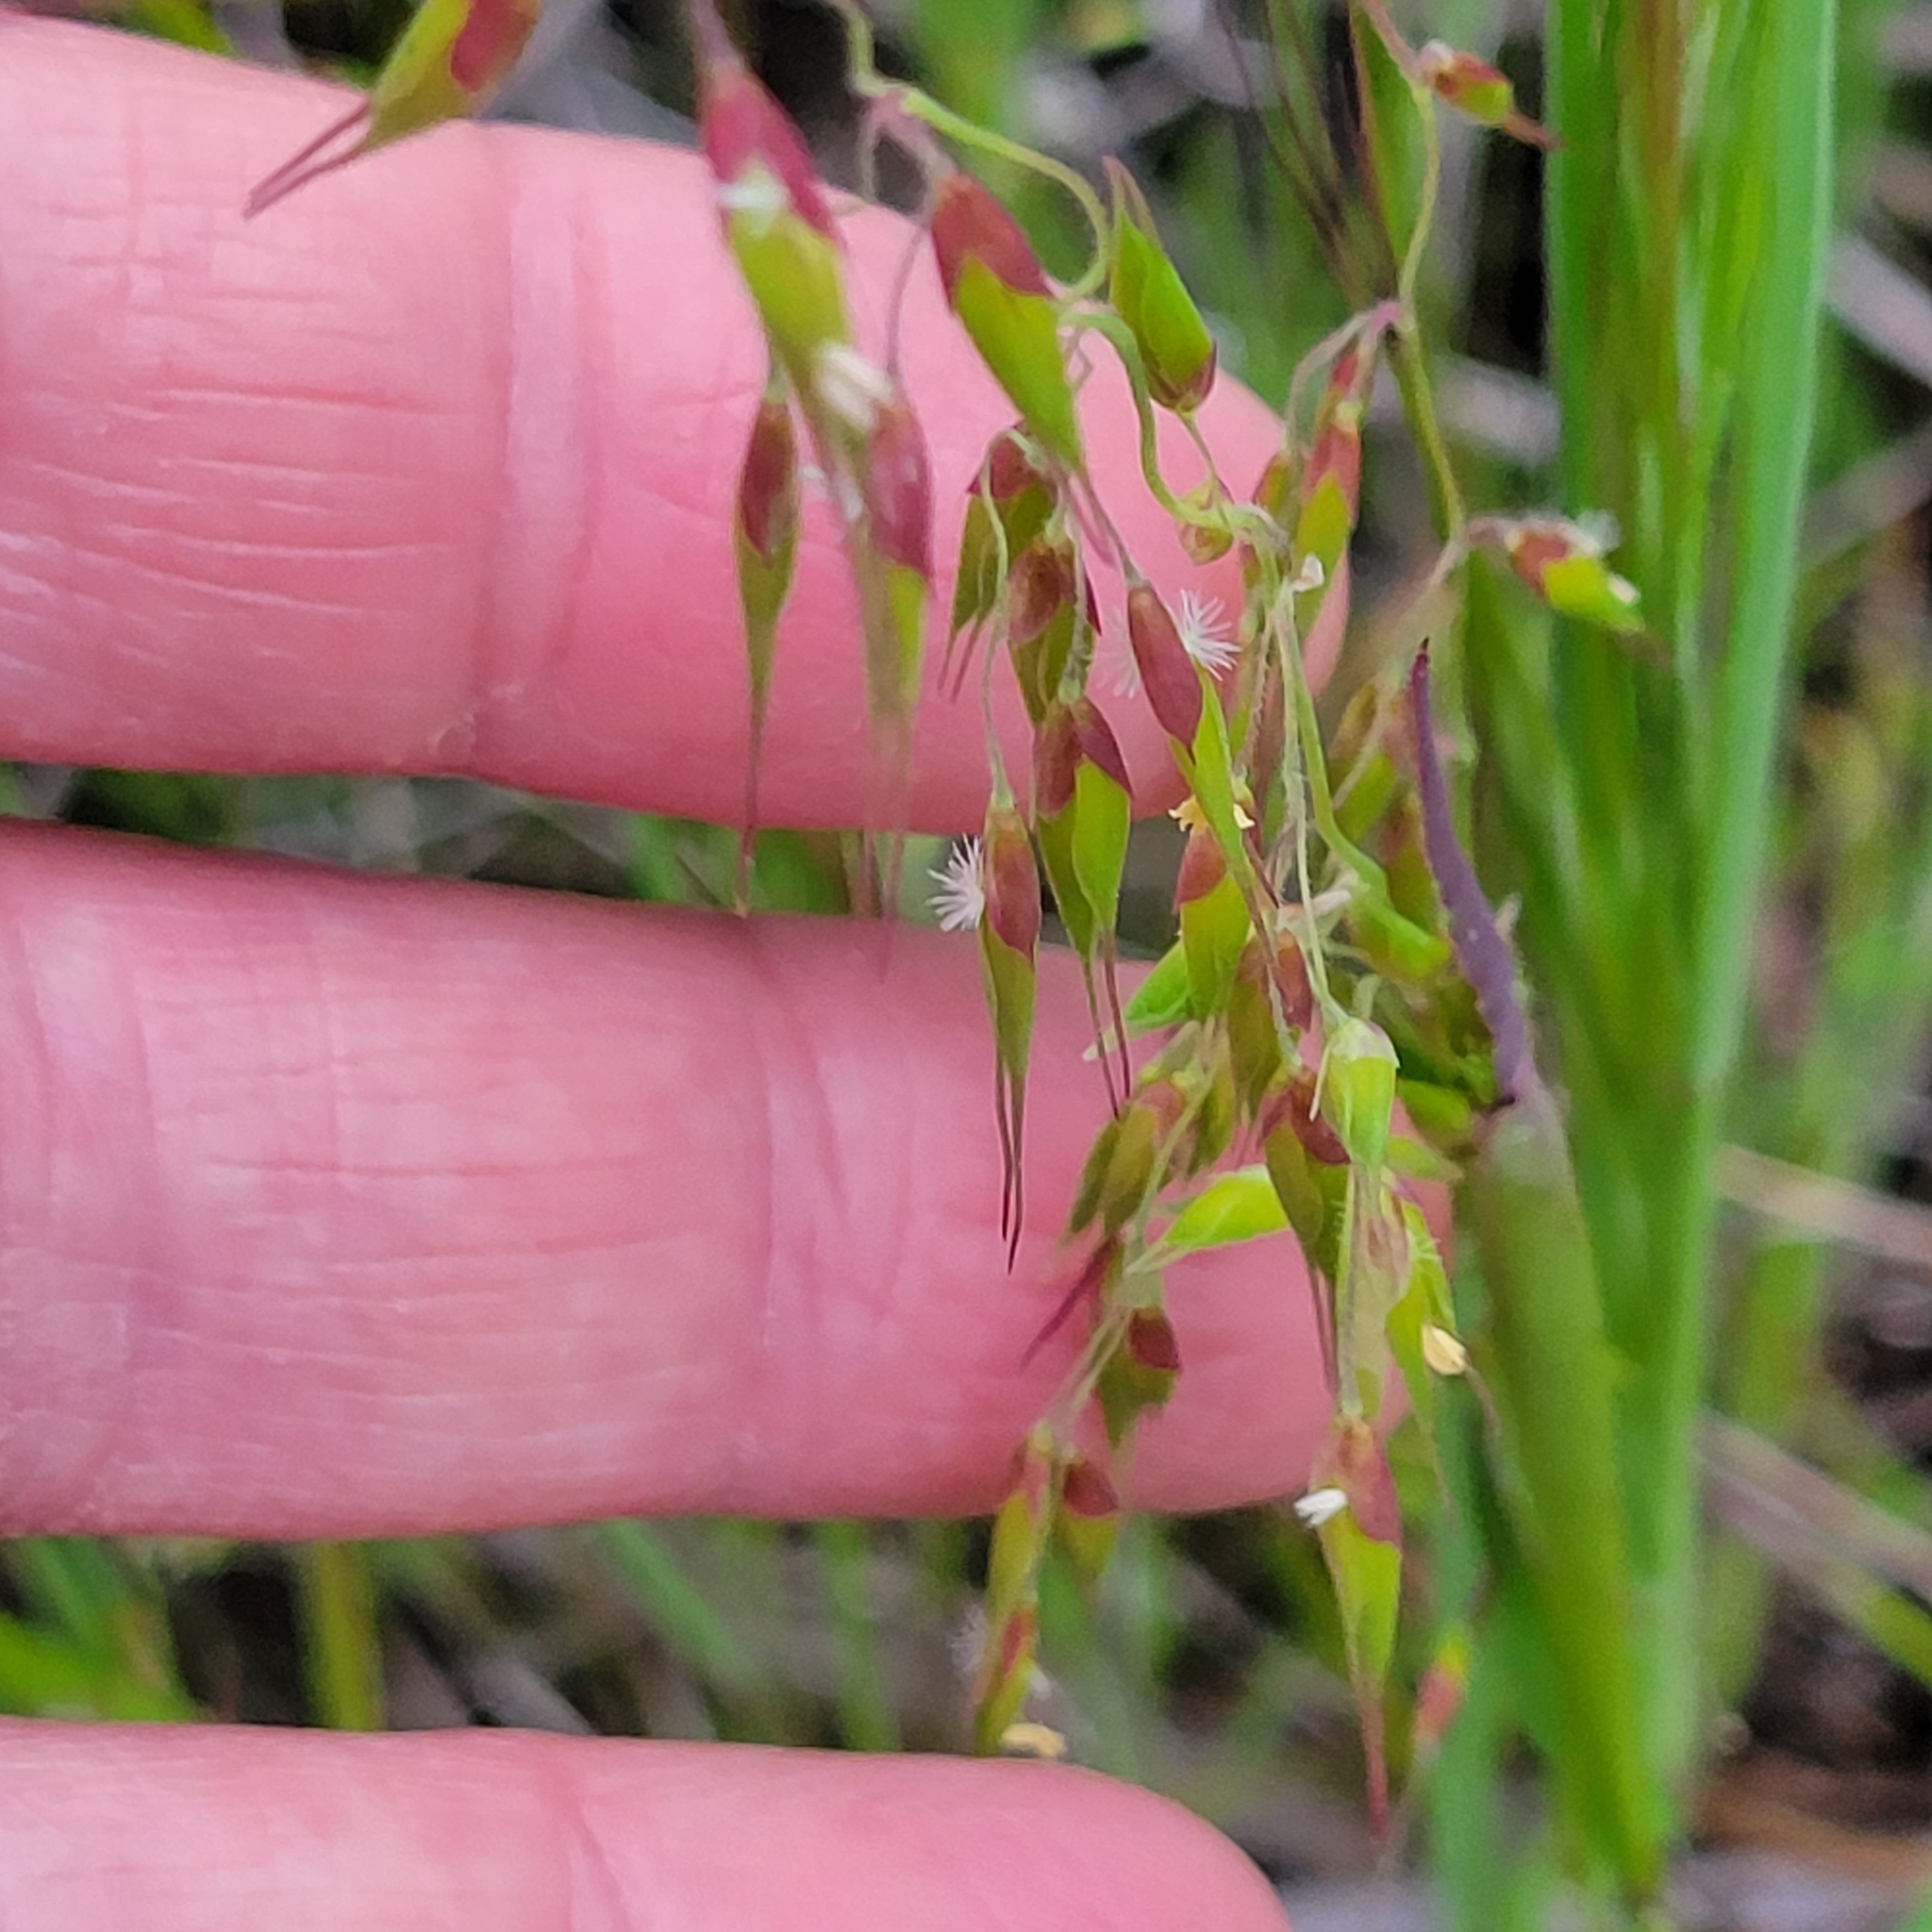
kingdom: Plantae
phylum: Tracheophyta
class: Liliopsida
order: Poales
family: Poaceae
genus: Ehrharta
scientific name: Ehrharta longiflora
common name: Longflowered veldtgrass
